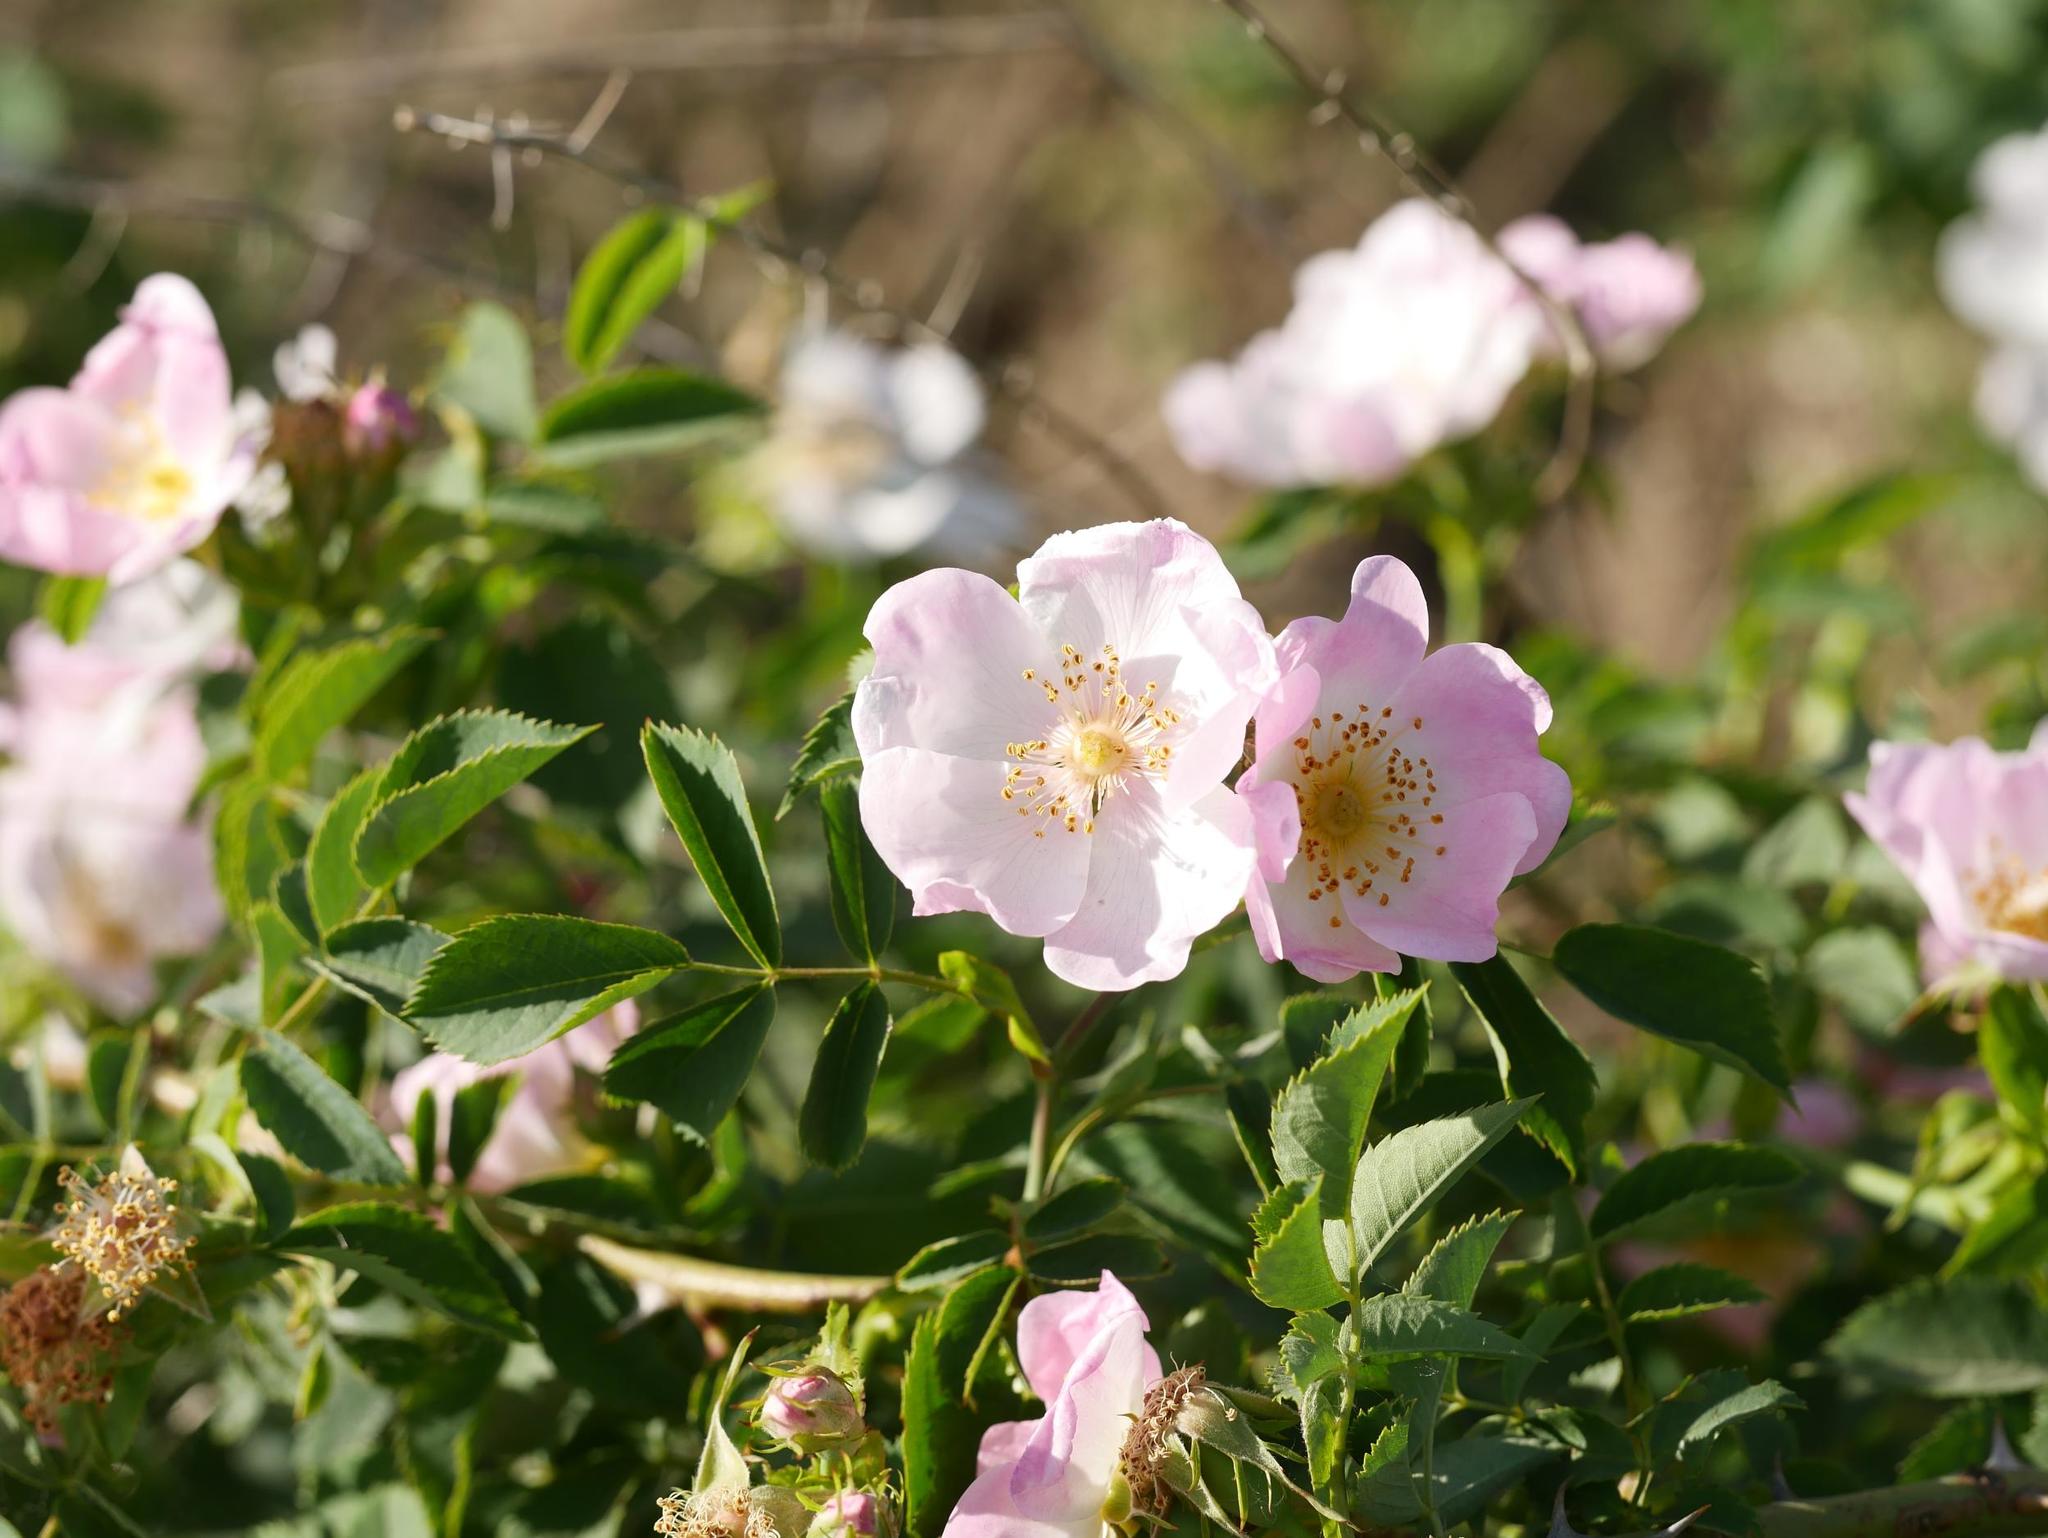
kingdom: Plantae
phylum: Tracheophyta
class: Magnoliopsida
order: Rosales
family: Rosaceae
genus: Rosa
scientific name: Rosa canina
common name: Dog rose
